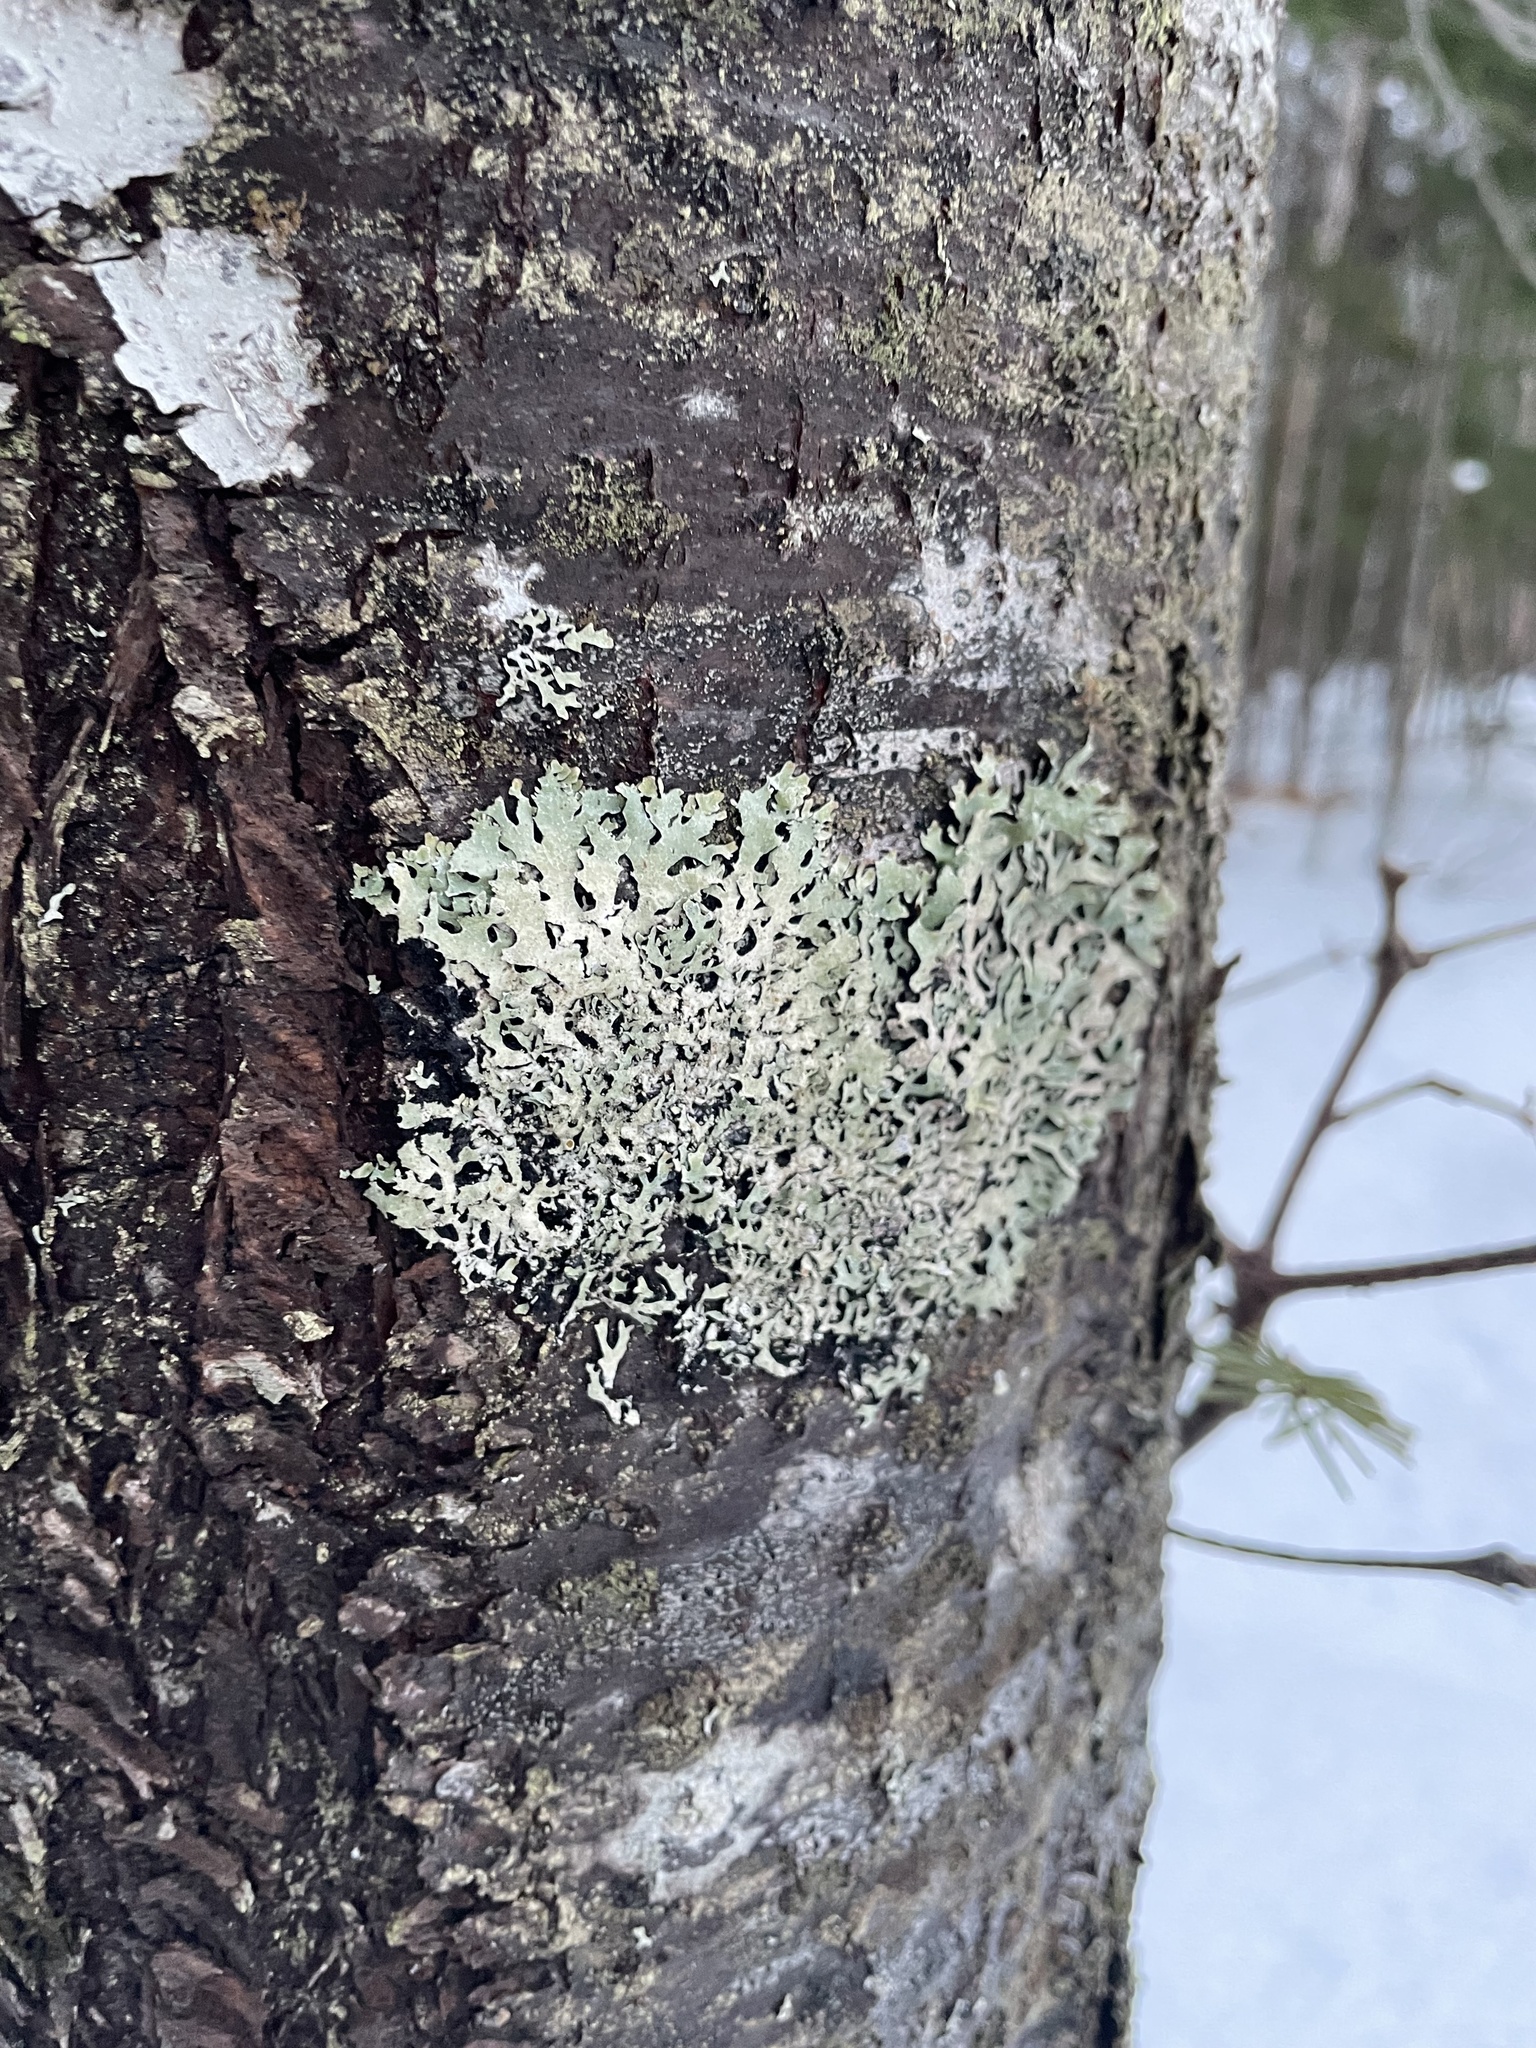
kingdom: Fungi
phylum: Ascomycota
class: Lecanoromycetes
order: Lecanorales
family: Parmeliaceae
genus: Parmelia
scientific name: Parmelia squarrosa
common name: Bottle brush shield lichen
